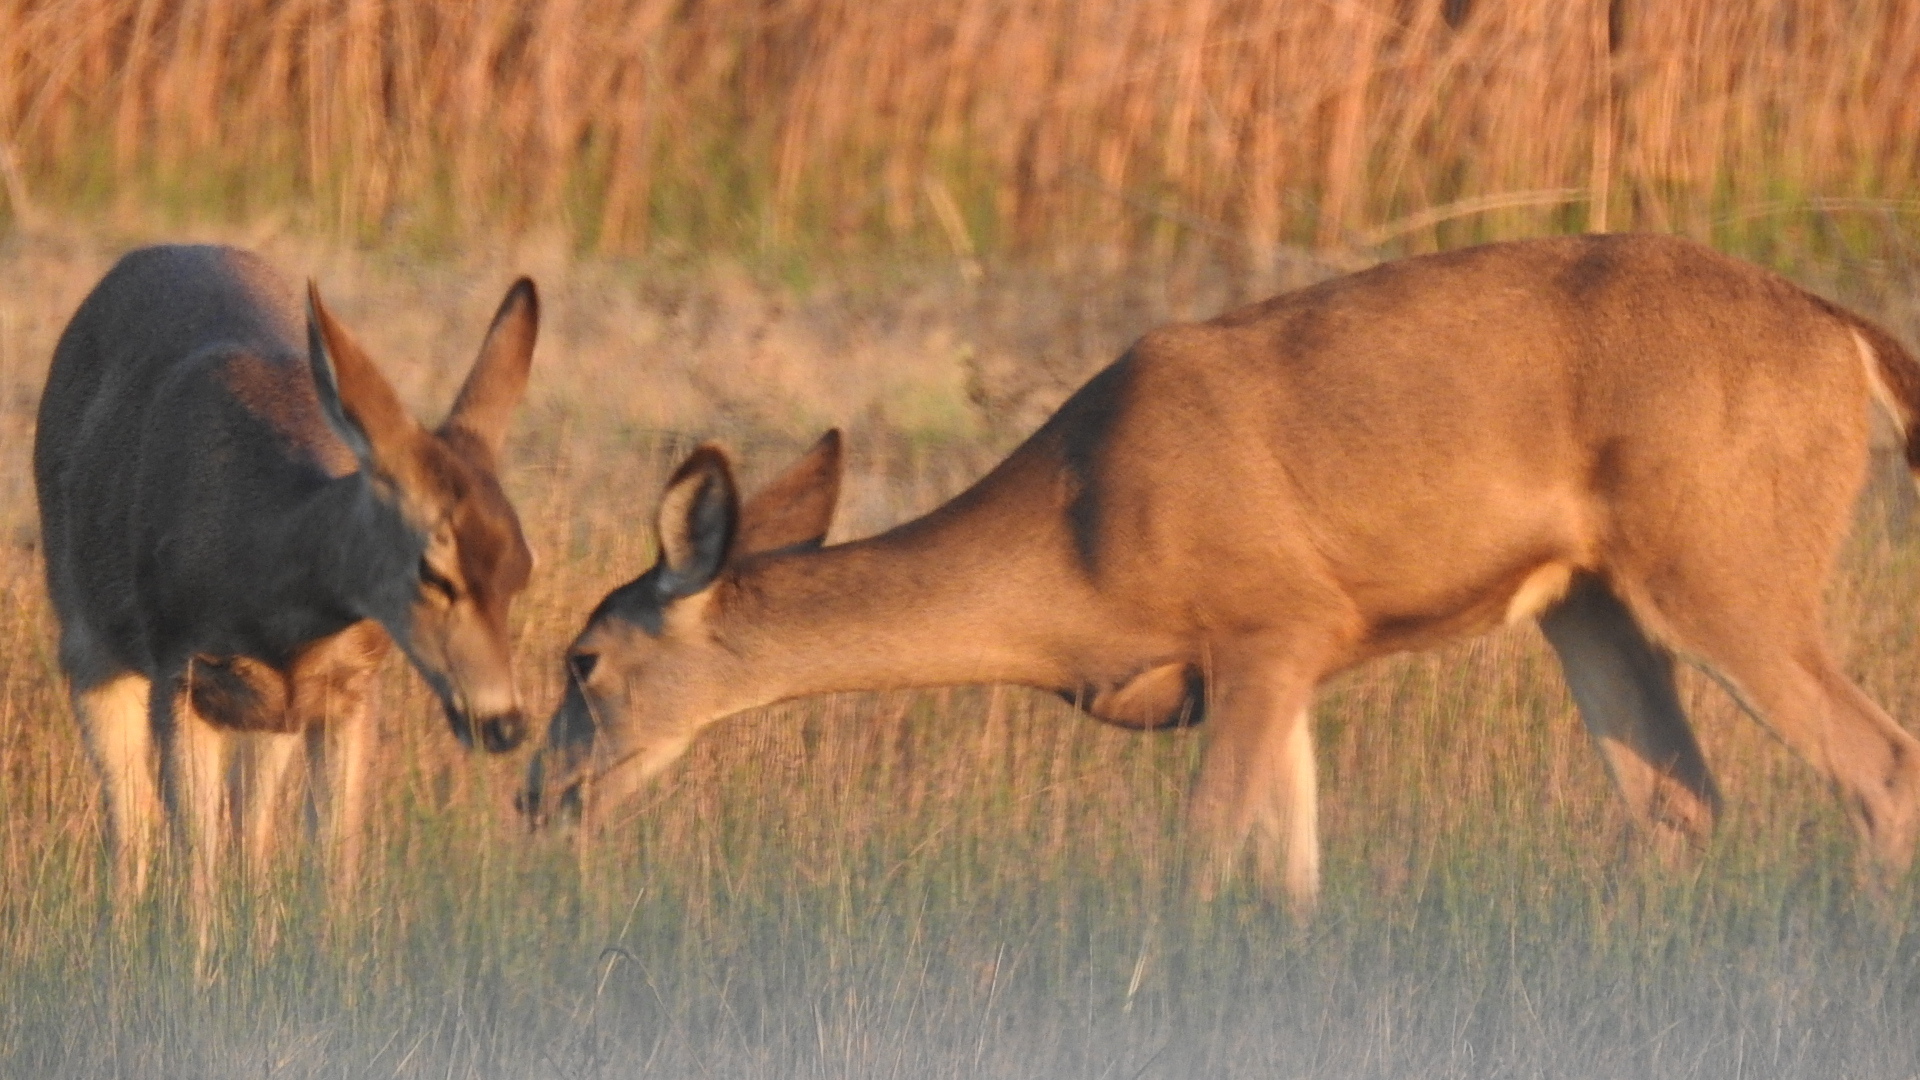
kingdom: Animalia
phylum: Chordata
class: Mammalia
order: Artiodactyla
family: Cervidae
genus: Odocoileus
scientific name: Odocoileus hemionus
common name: Mule deer
